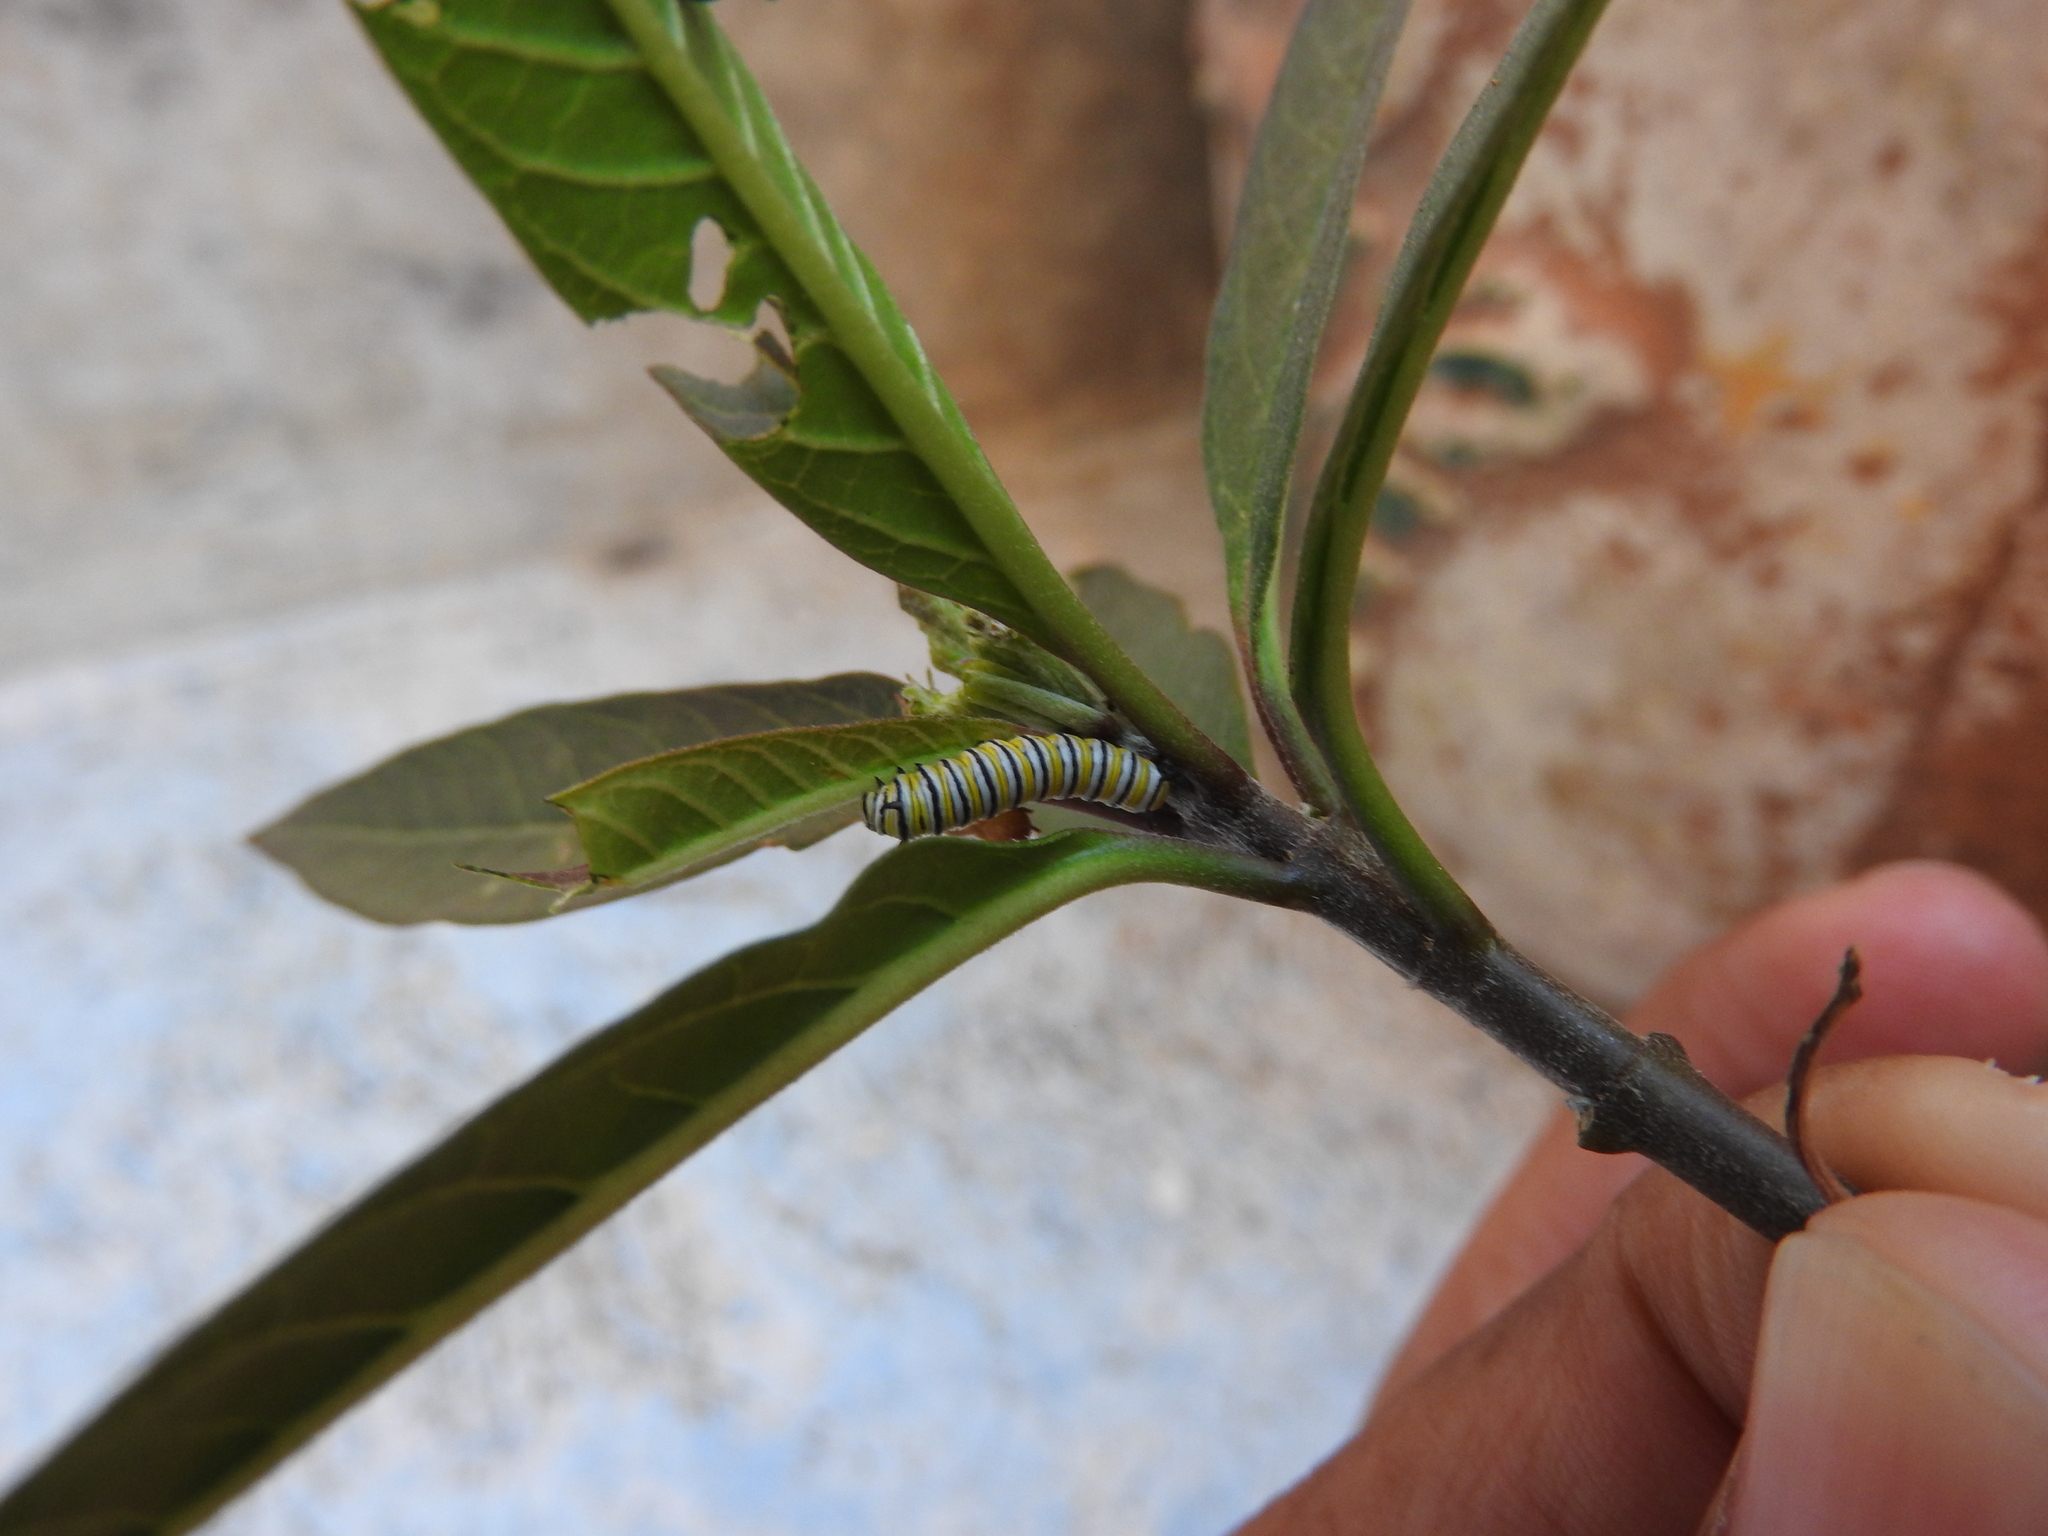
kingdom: Animalia
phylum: Arthropoda
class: Insecta
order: Lepidoptera
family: Nymphalidae
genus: Danaus
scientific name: Danaus plexippus
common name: Monarch
